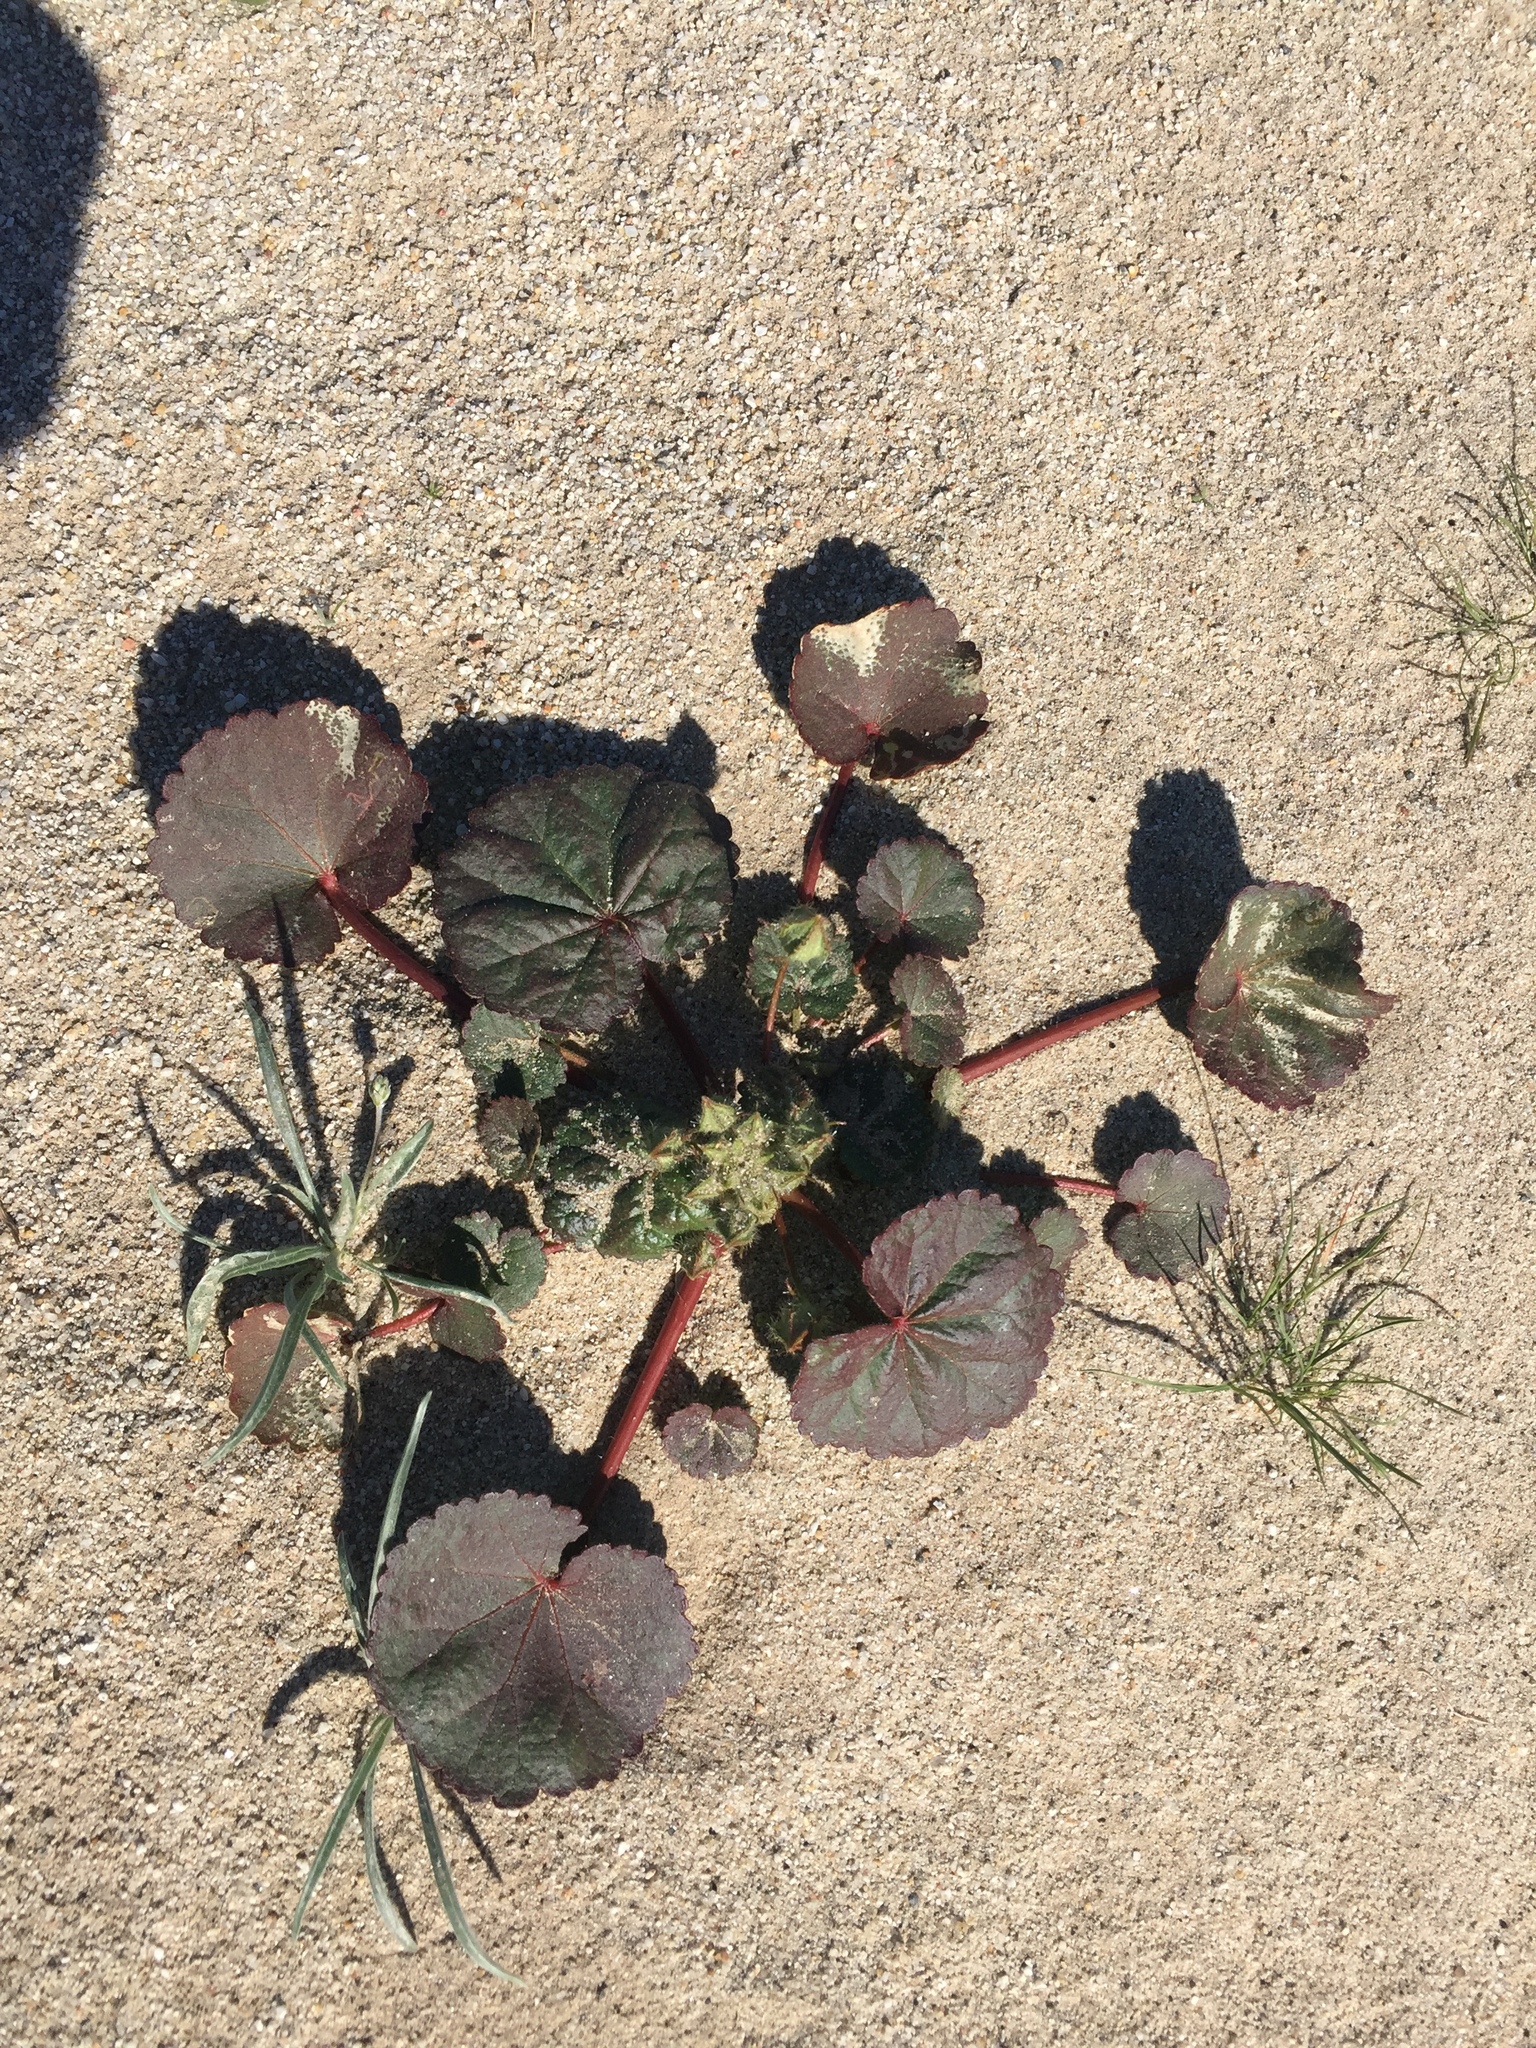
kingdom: Plantae
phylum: Tracheophyta
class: Magnoliopsida
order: Malvales
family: Malvaceae
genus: Eremalche
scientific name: Eremalche rotundifolia
